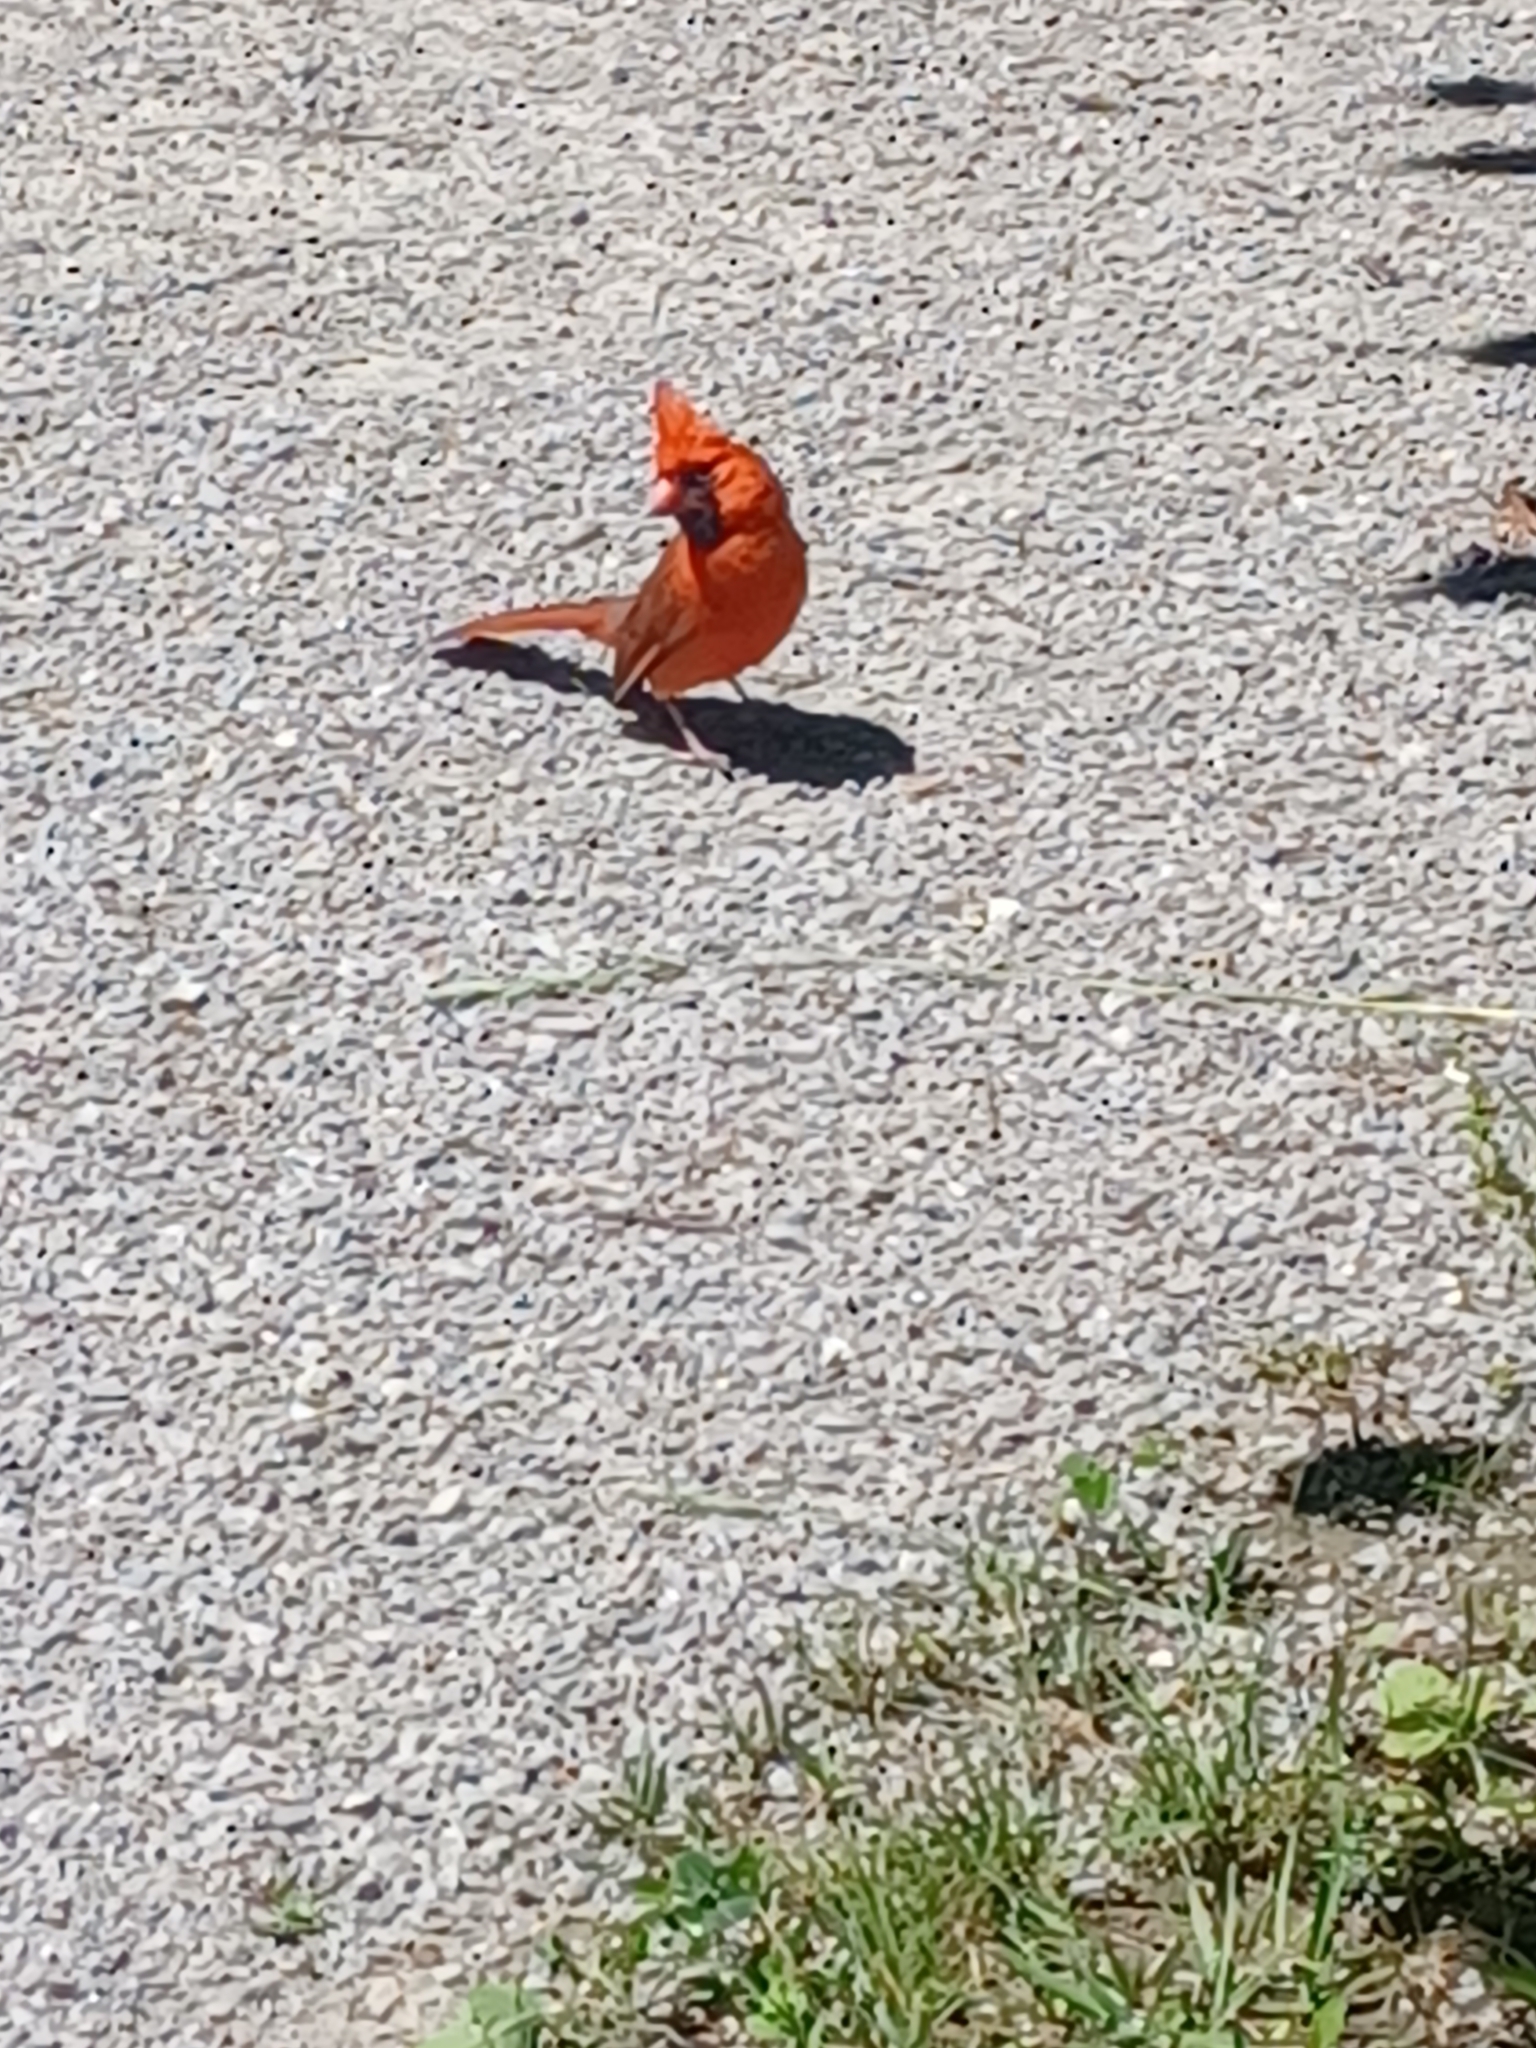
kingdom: Animalia
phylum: Chordata
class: Aves
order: Passeriformes
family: Cardinalidae
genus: Cardinalis
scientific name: Cardinalis cardinalis
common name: Northern cardinal
